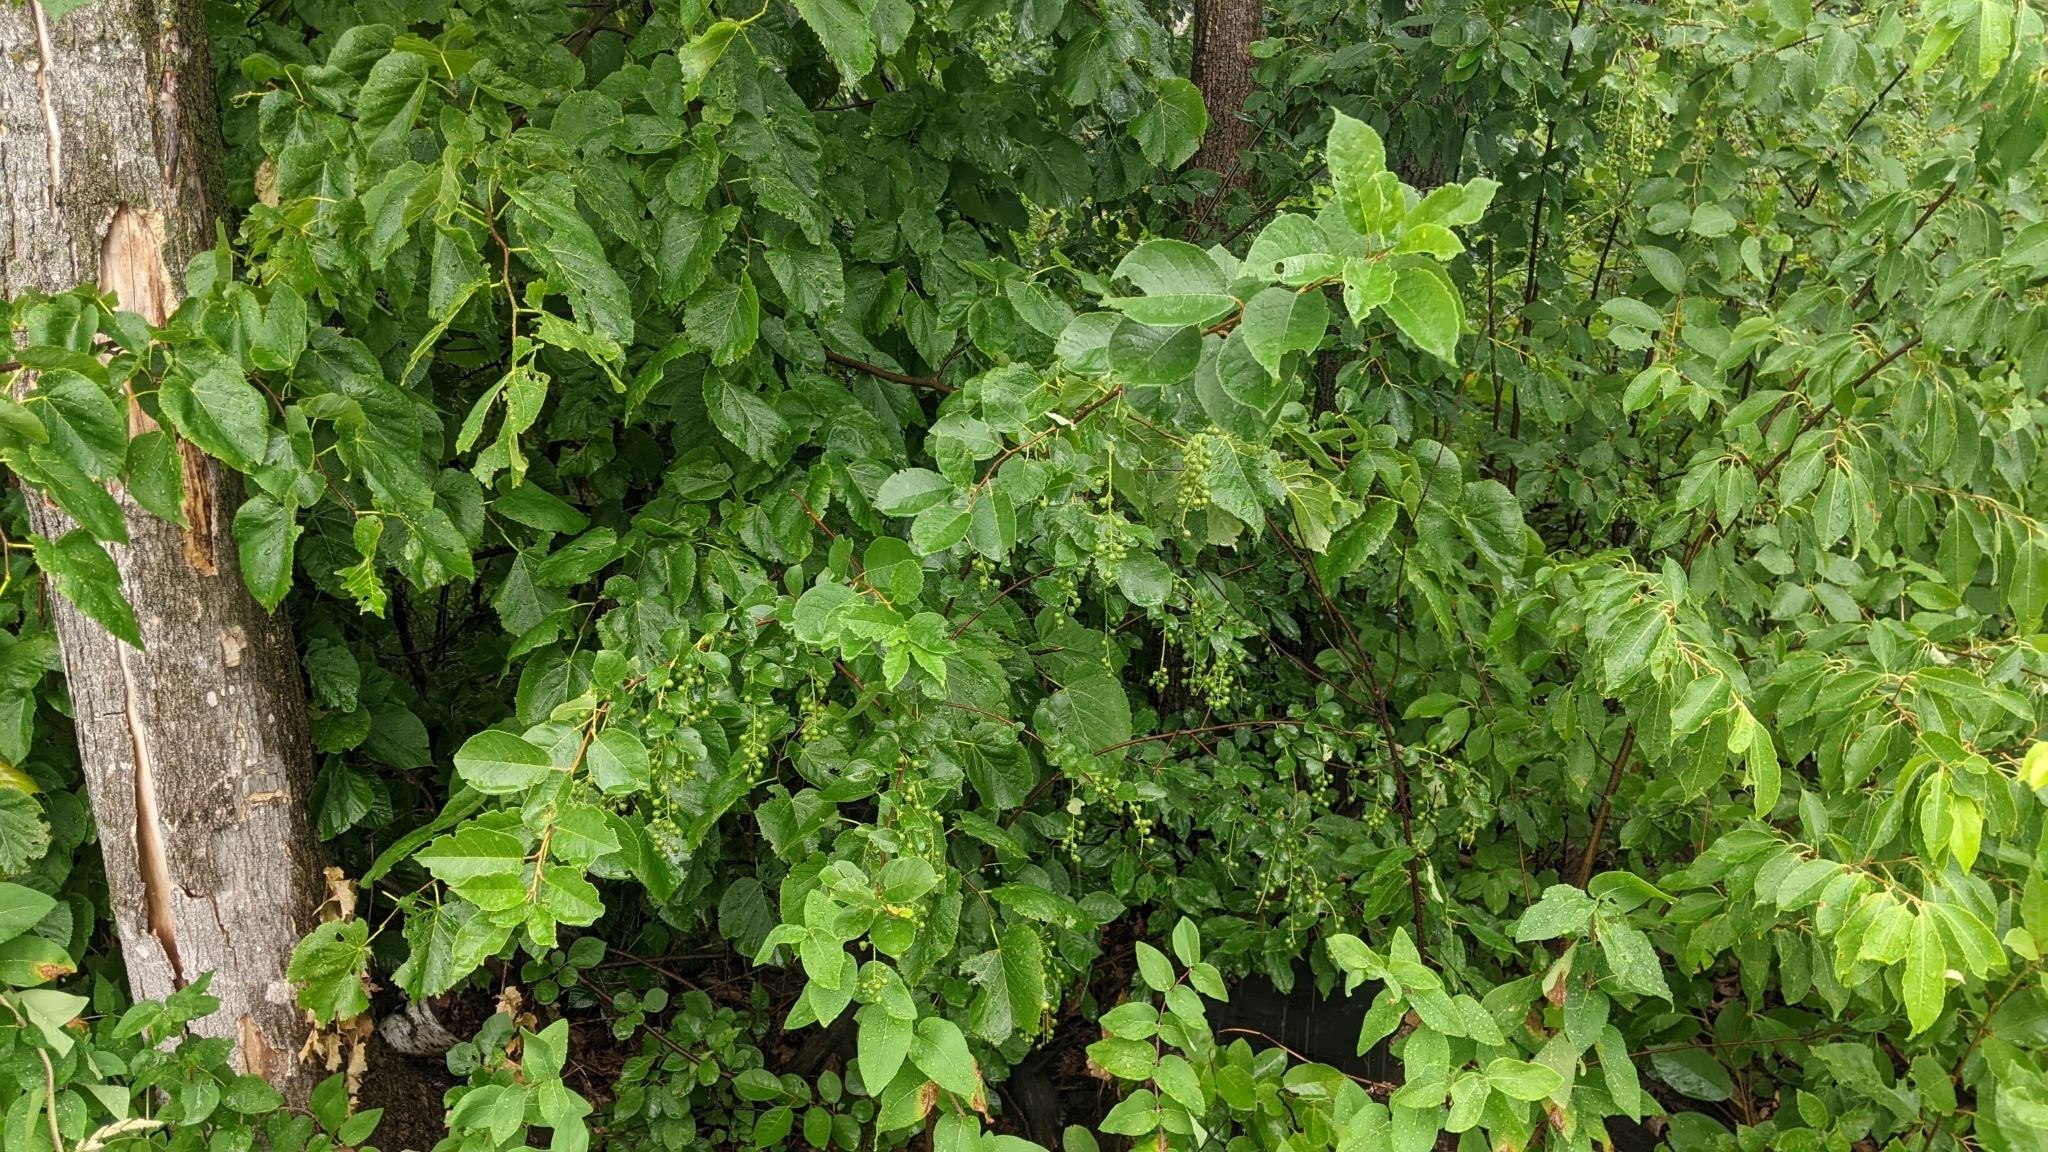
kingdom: Plantae
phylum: Tracheophyta
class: Magnoliopsida
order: Rosales
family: Rosaceae
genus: Prunus
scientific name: Prunus virginiana
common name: Chokecherry
